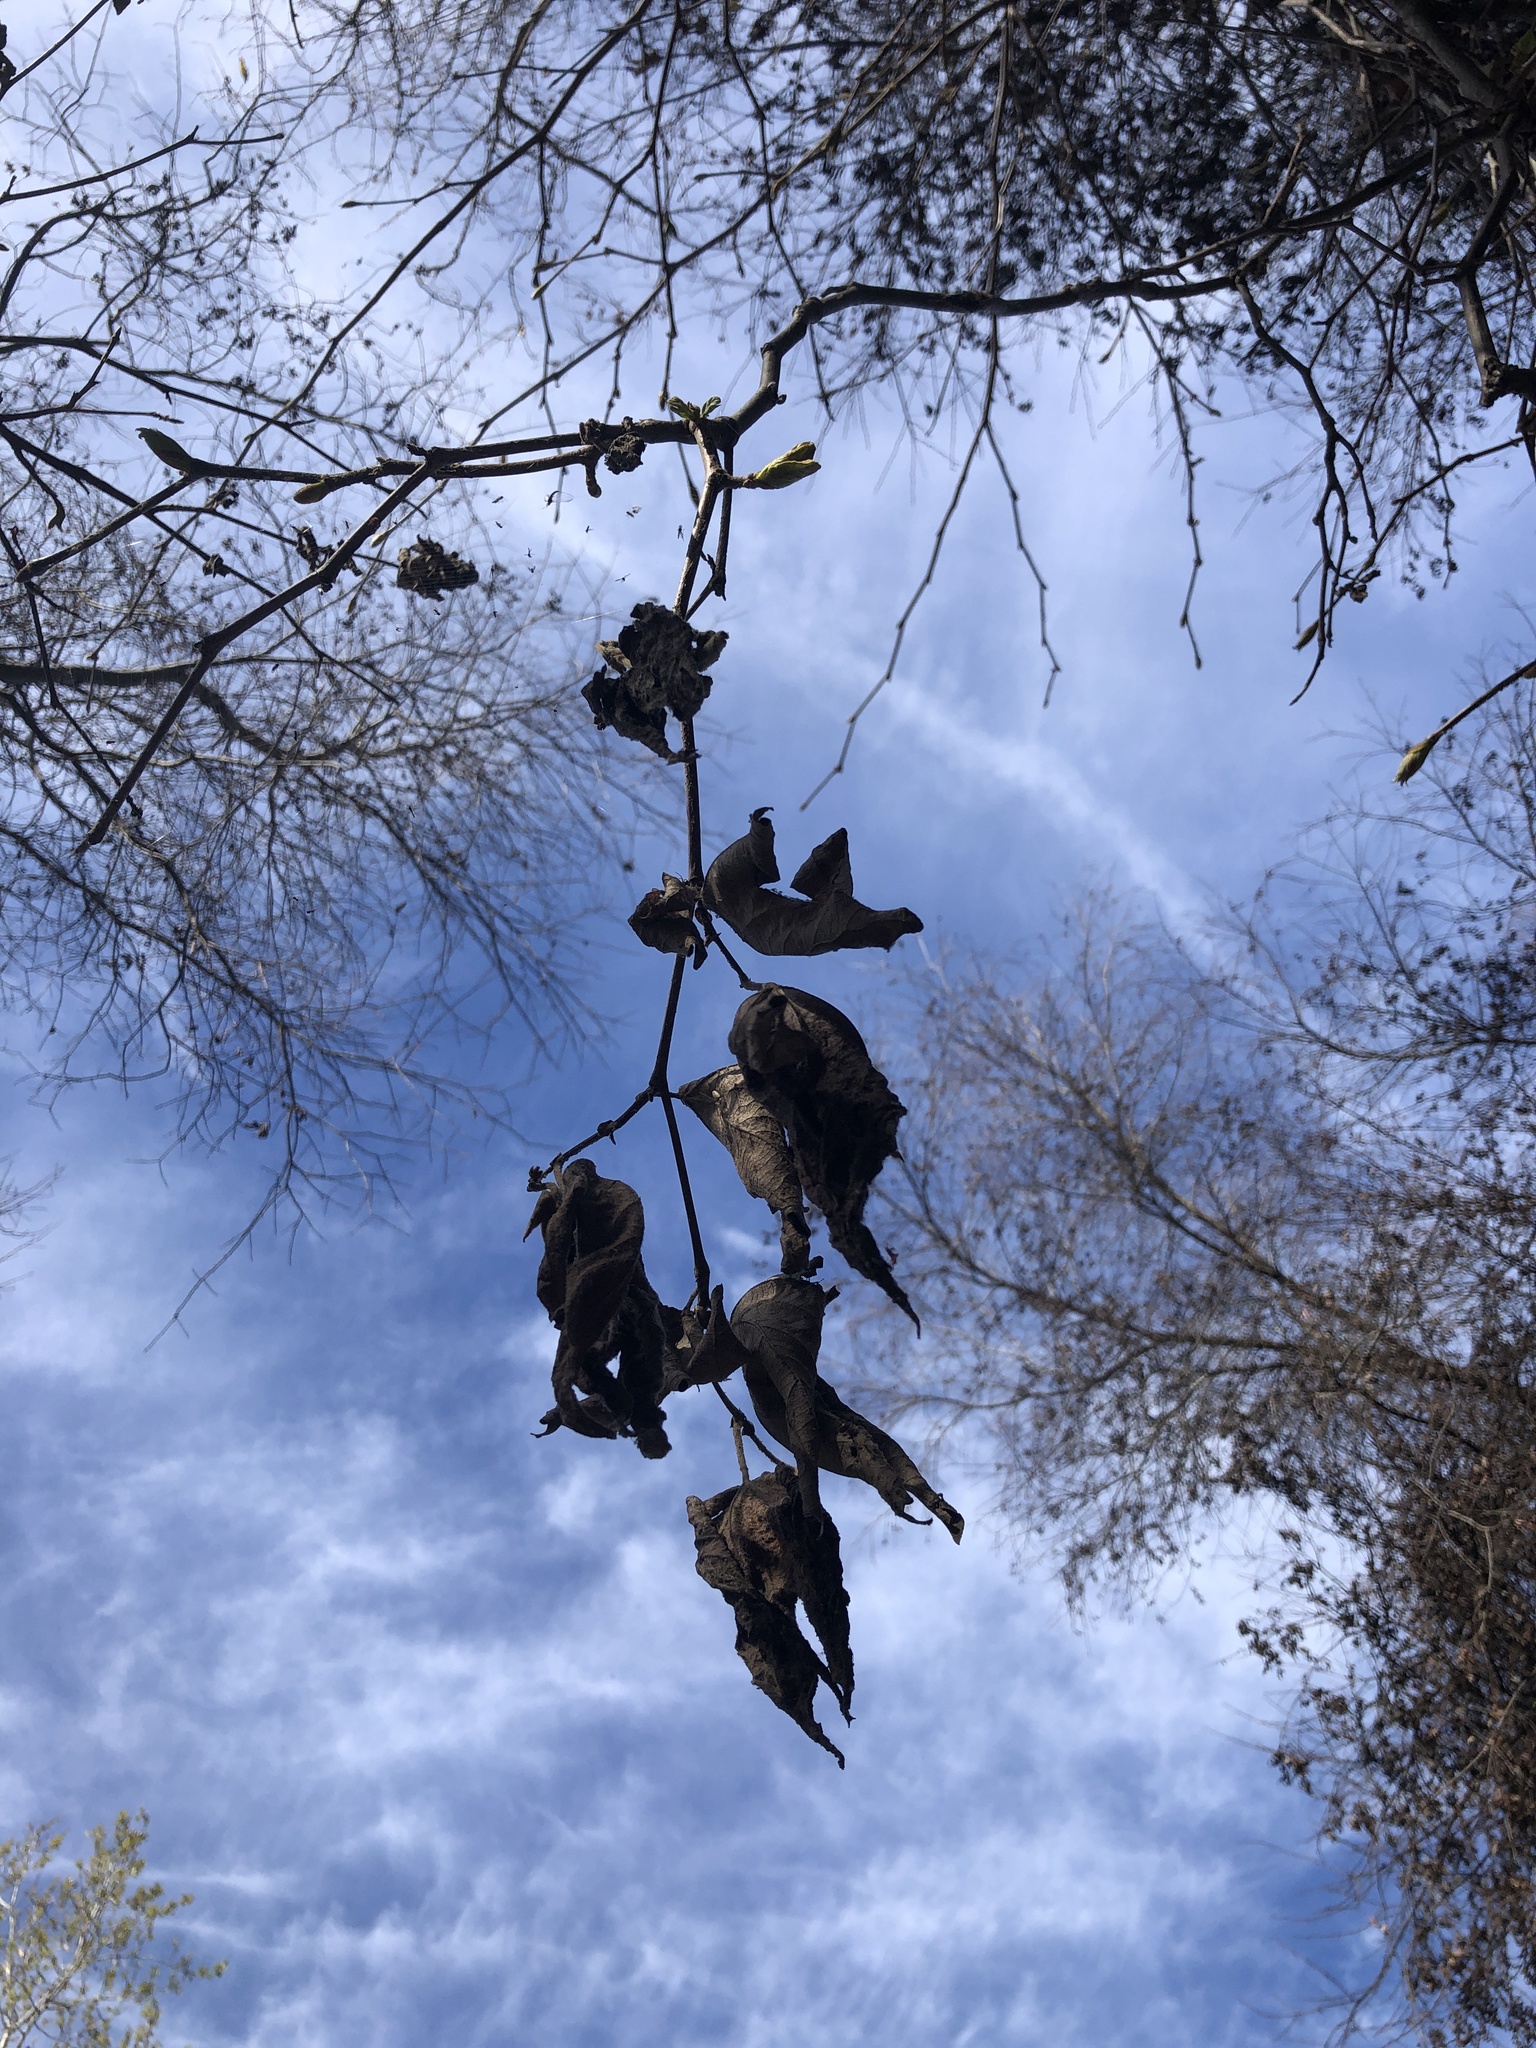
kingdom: Plantae
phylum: Tracheophyta
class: Magnoliopsida
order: Proteales
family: Platanaceae
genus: Platanus
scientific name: Platanus racemosa
